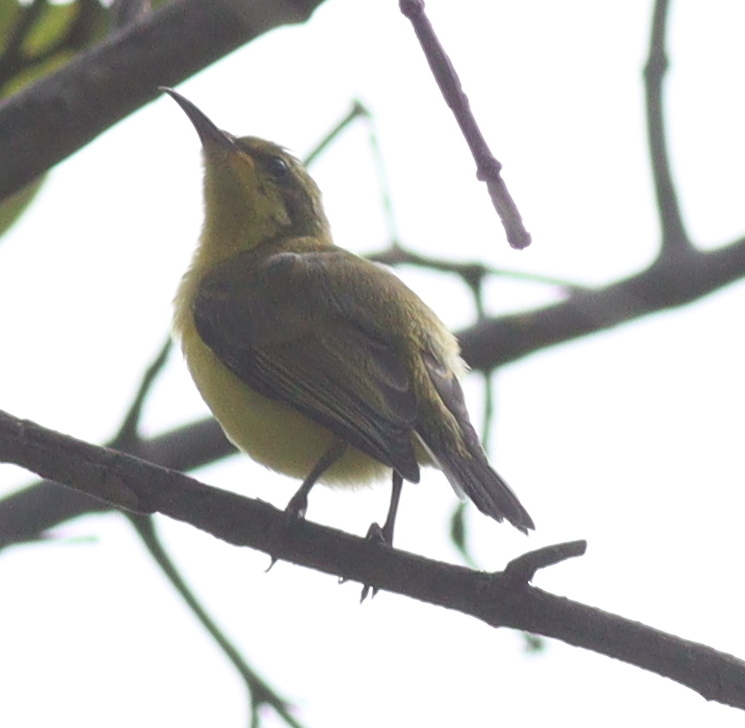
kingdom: Animalia
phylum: Chordata
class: Aves
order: Passeriformes
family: Nectariniidae
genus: Cinnyris
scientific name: Cinnyris
